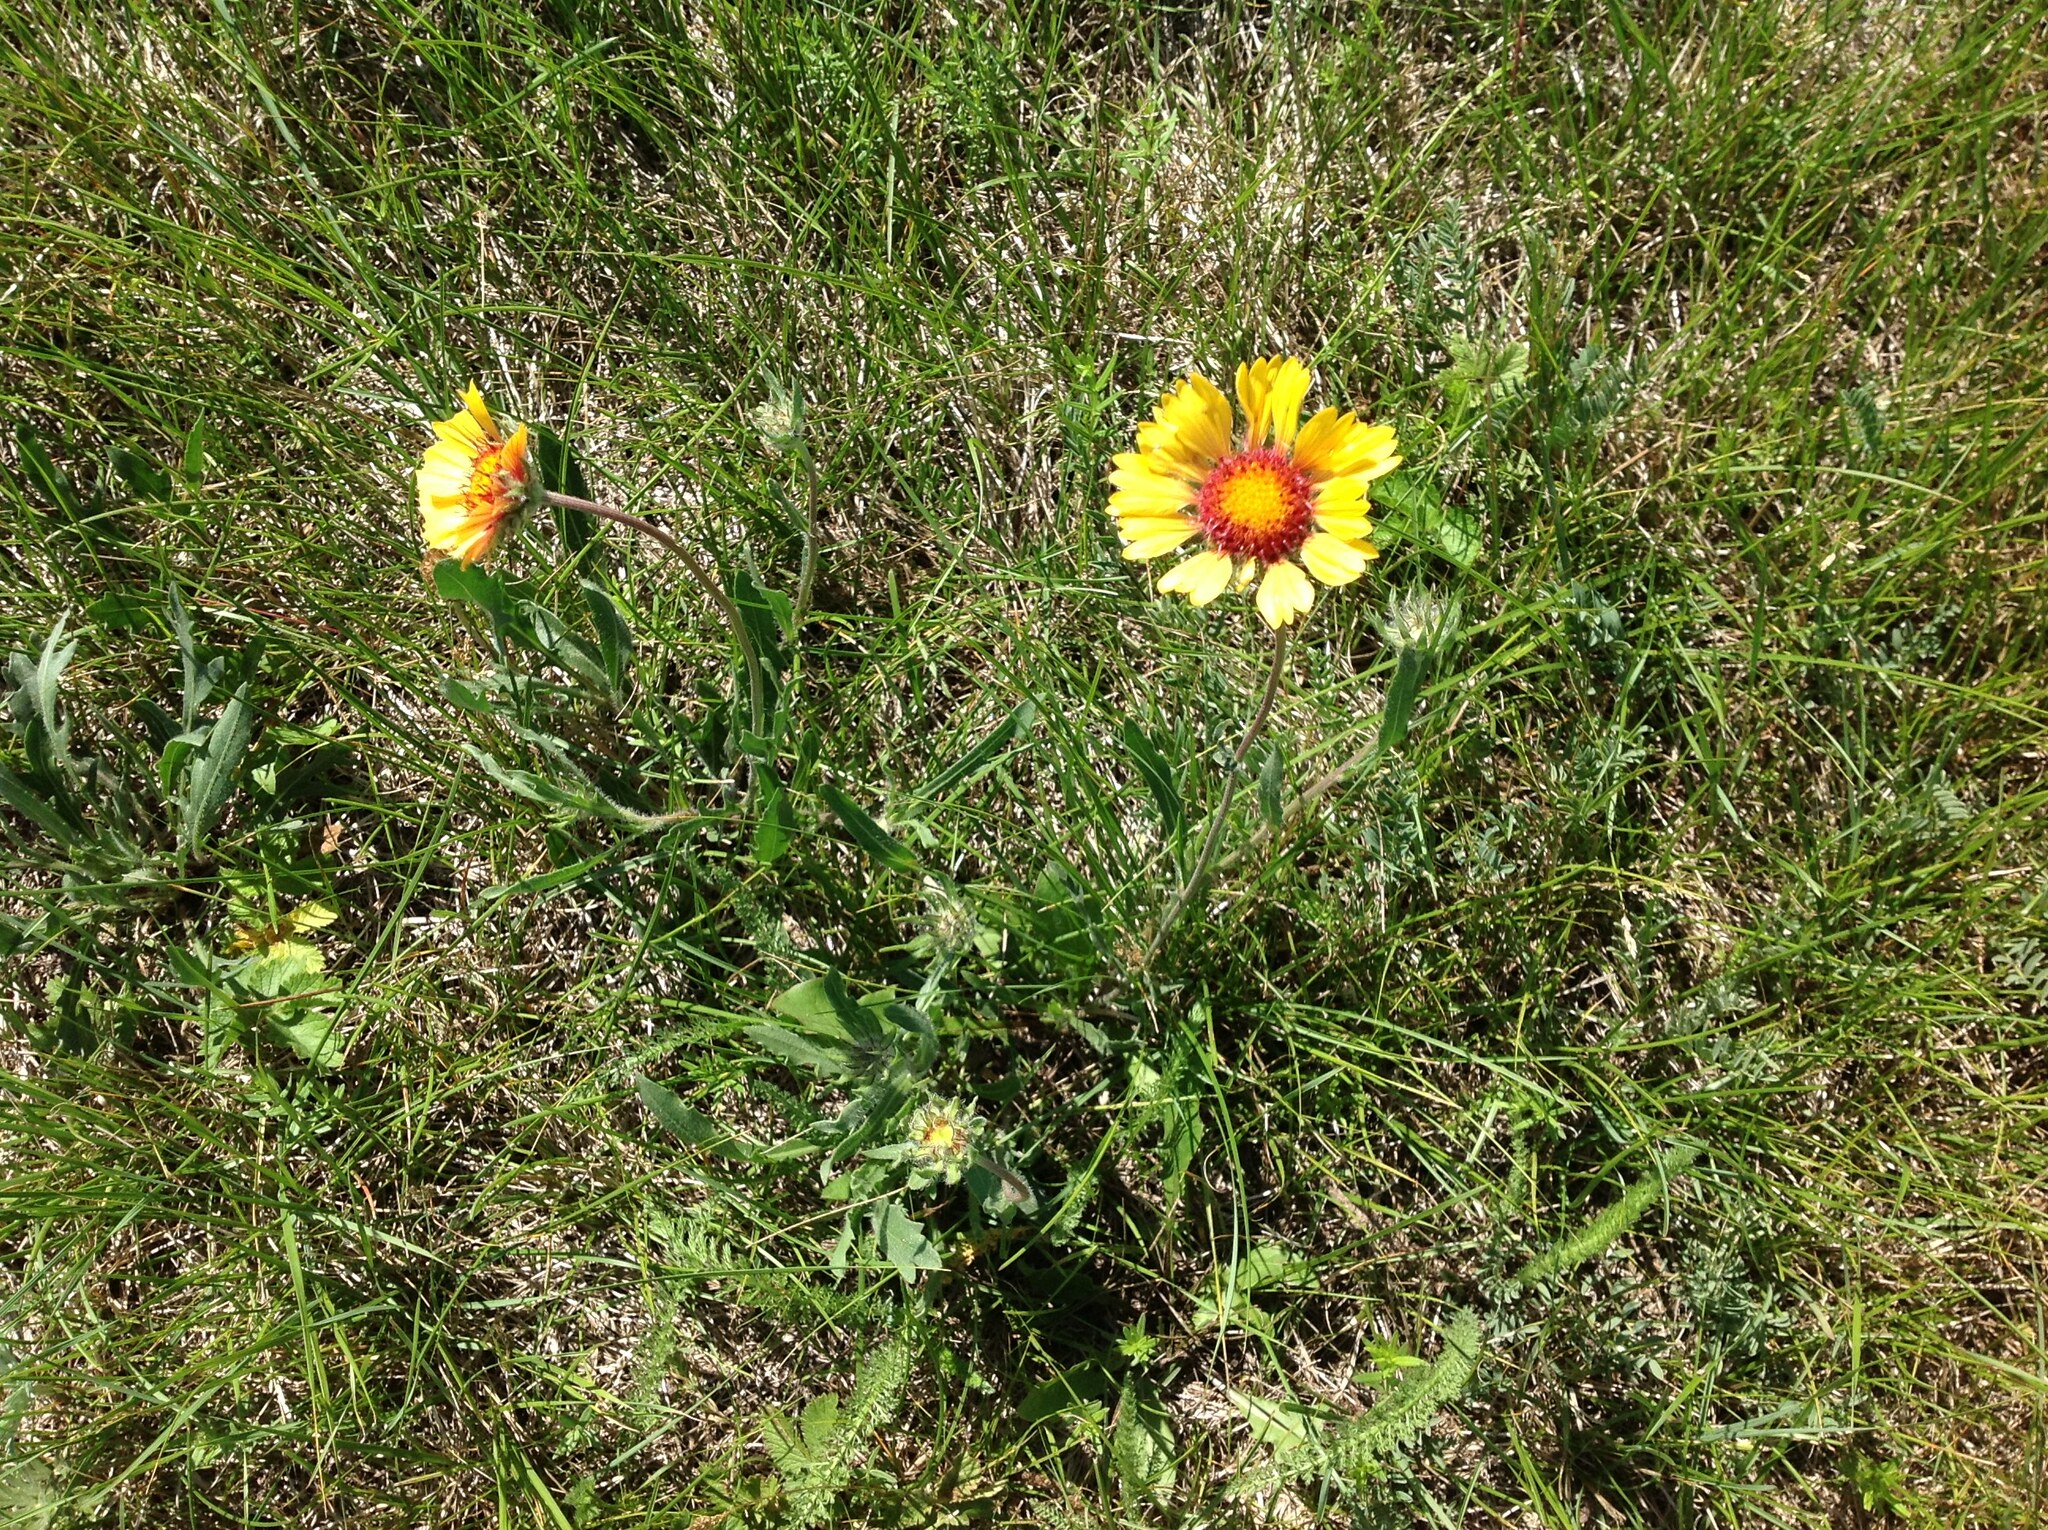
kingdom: Plantae
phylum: Tracheophyta
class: Magnoliopsida
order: Asterales
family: Asteraceae
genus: Gaillardia
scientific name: Gaillardia aristata
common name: Blanket-flower
